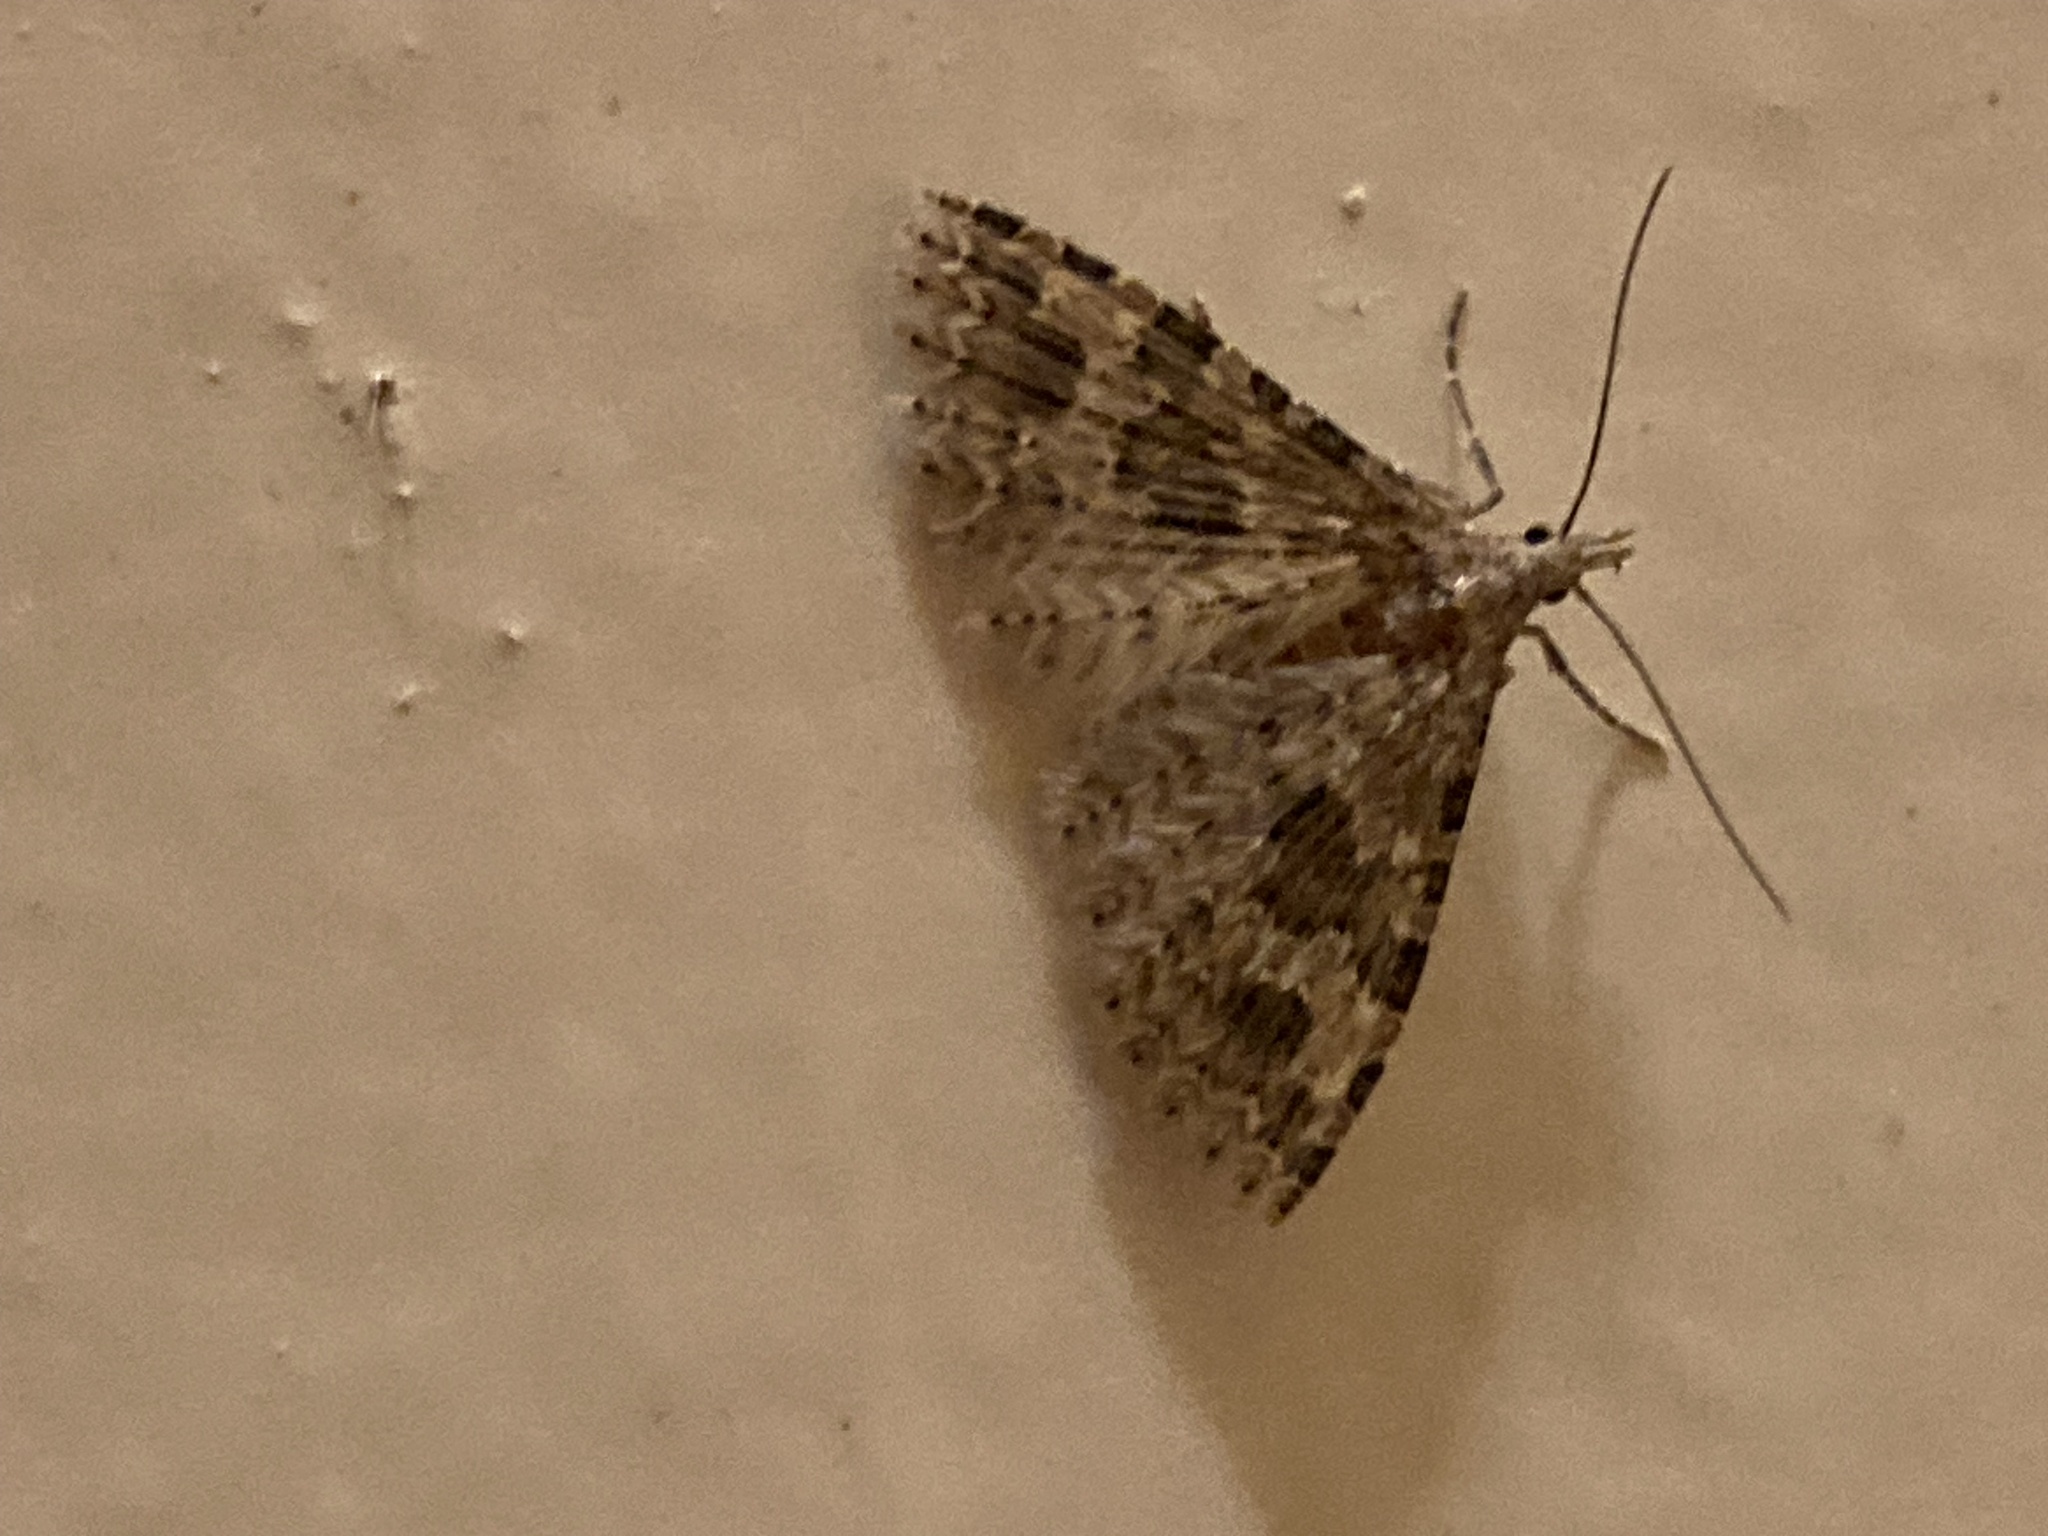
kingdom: Animalia
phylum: Arthropoda
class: Insecta
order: Lepidoptera
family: Alucitidae
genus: Alucita
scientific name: Alucita hexadactyla
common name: Twenty-plume moth
